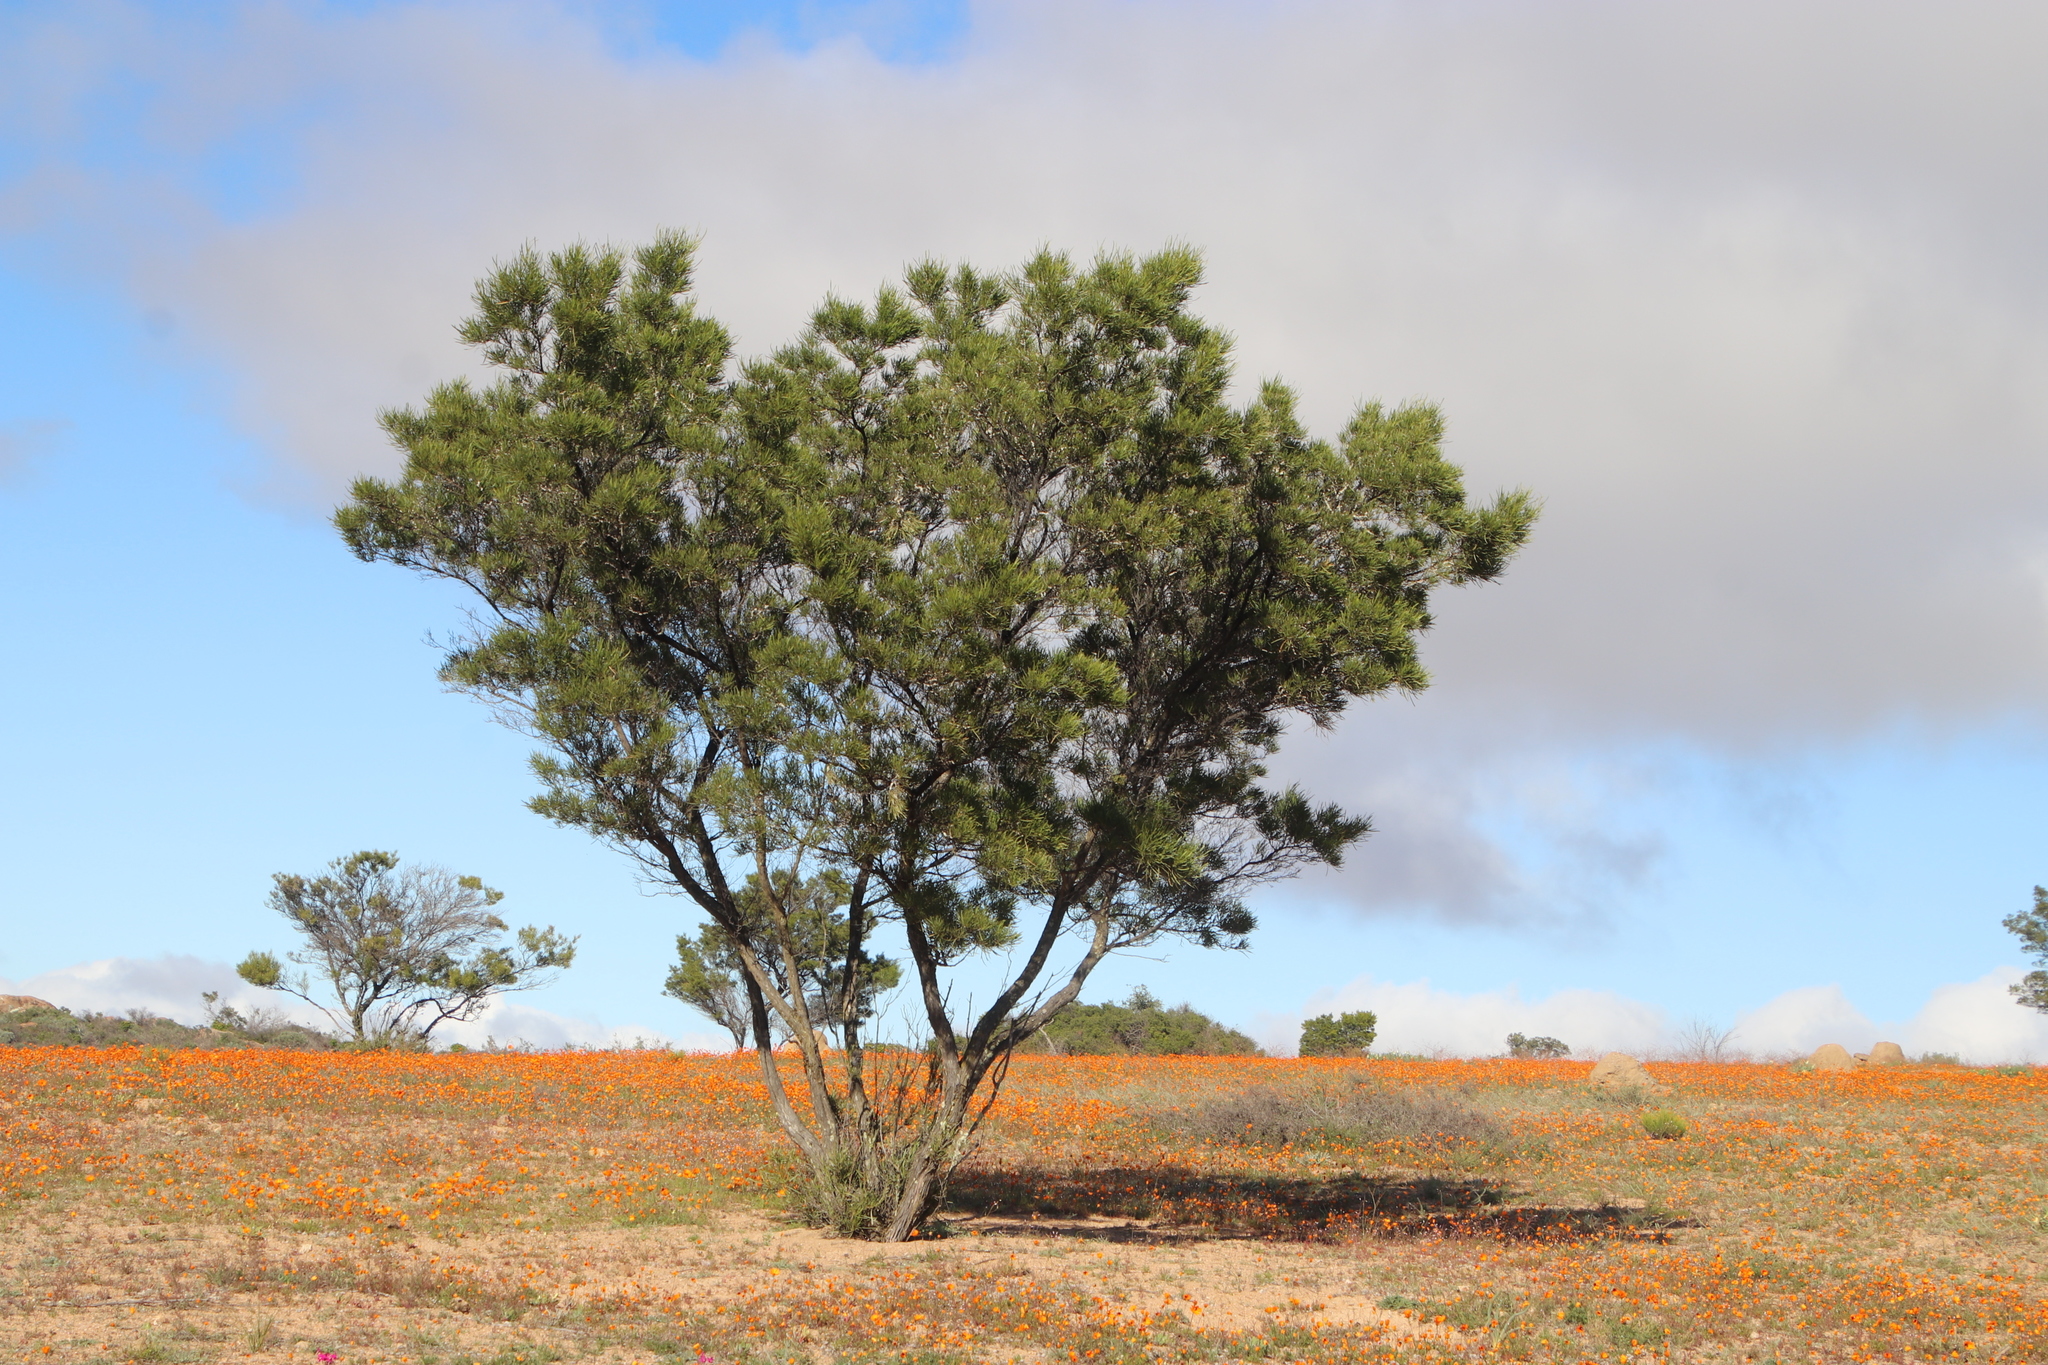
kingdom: Plantae
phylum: Tracheophyta
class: Magnoliopsida
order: Sapindales
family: Sapindaceae
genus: Dodonaea
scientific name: Dodonaea viscosa
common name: Hopbush
